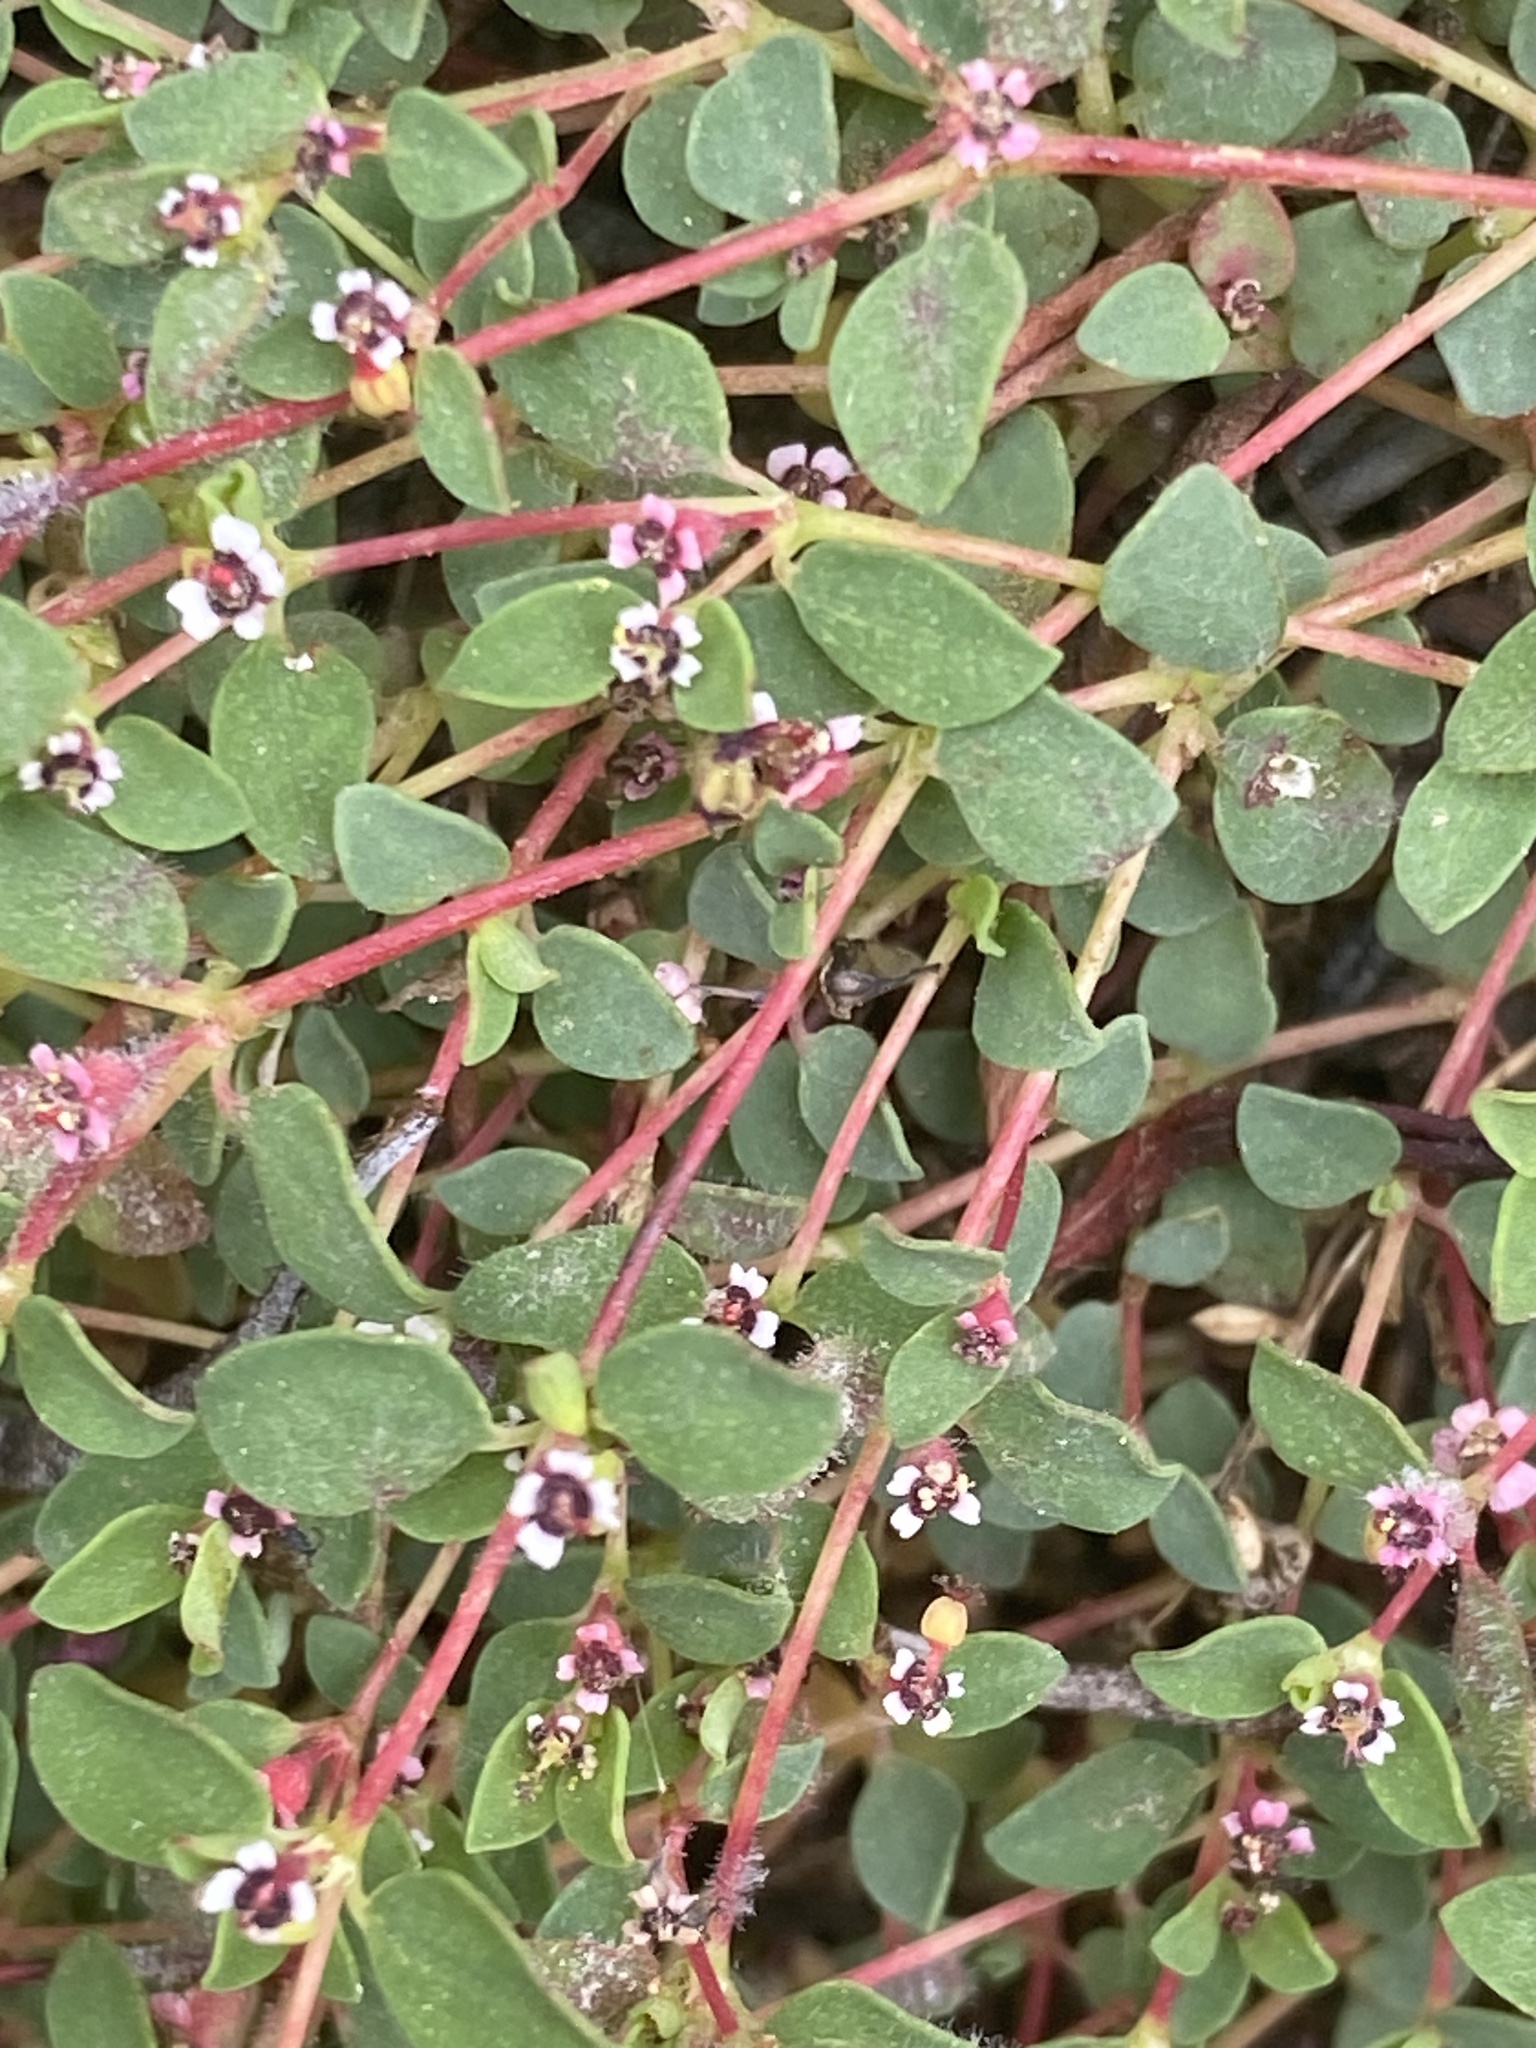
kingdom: Plantae
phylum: Tracheophyta
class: Magnoliopsida
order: Malpighiales
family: Euphorbiaceae
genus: Euphorbia
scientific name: Euphorbia polycarpa
